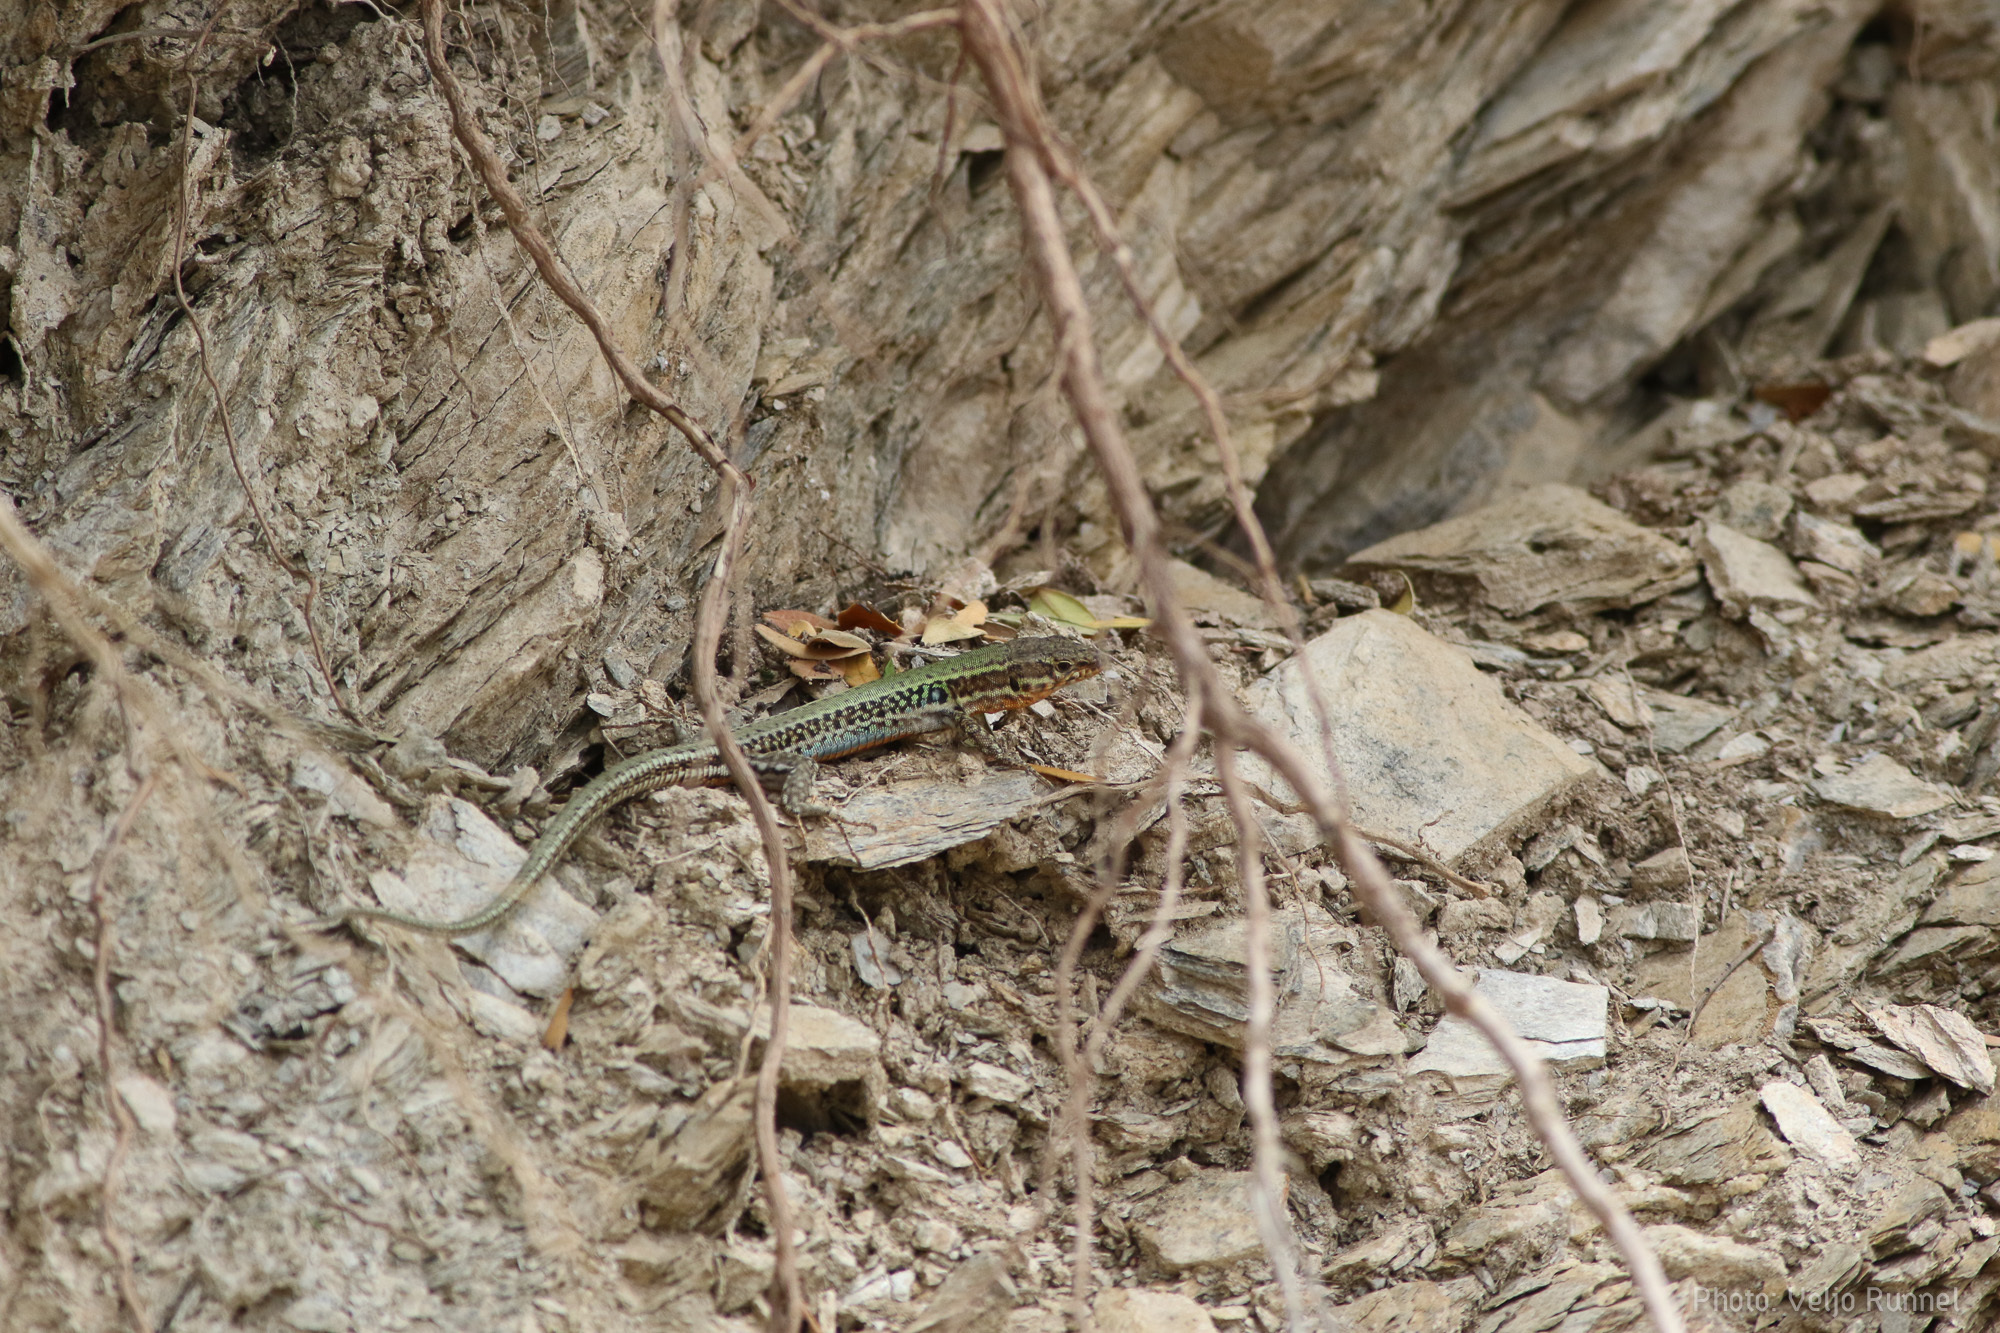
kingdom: Animalia
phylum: Chordata
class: Squamata
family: Lacertidae
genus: Podarcis
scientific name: Podarcis cretensis
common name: Cretan wall lizard
